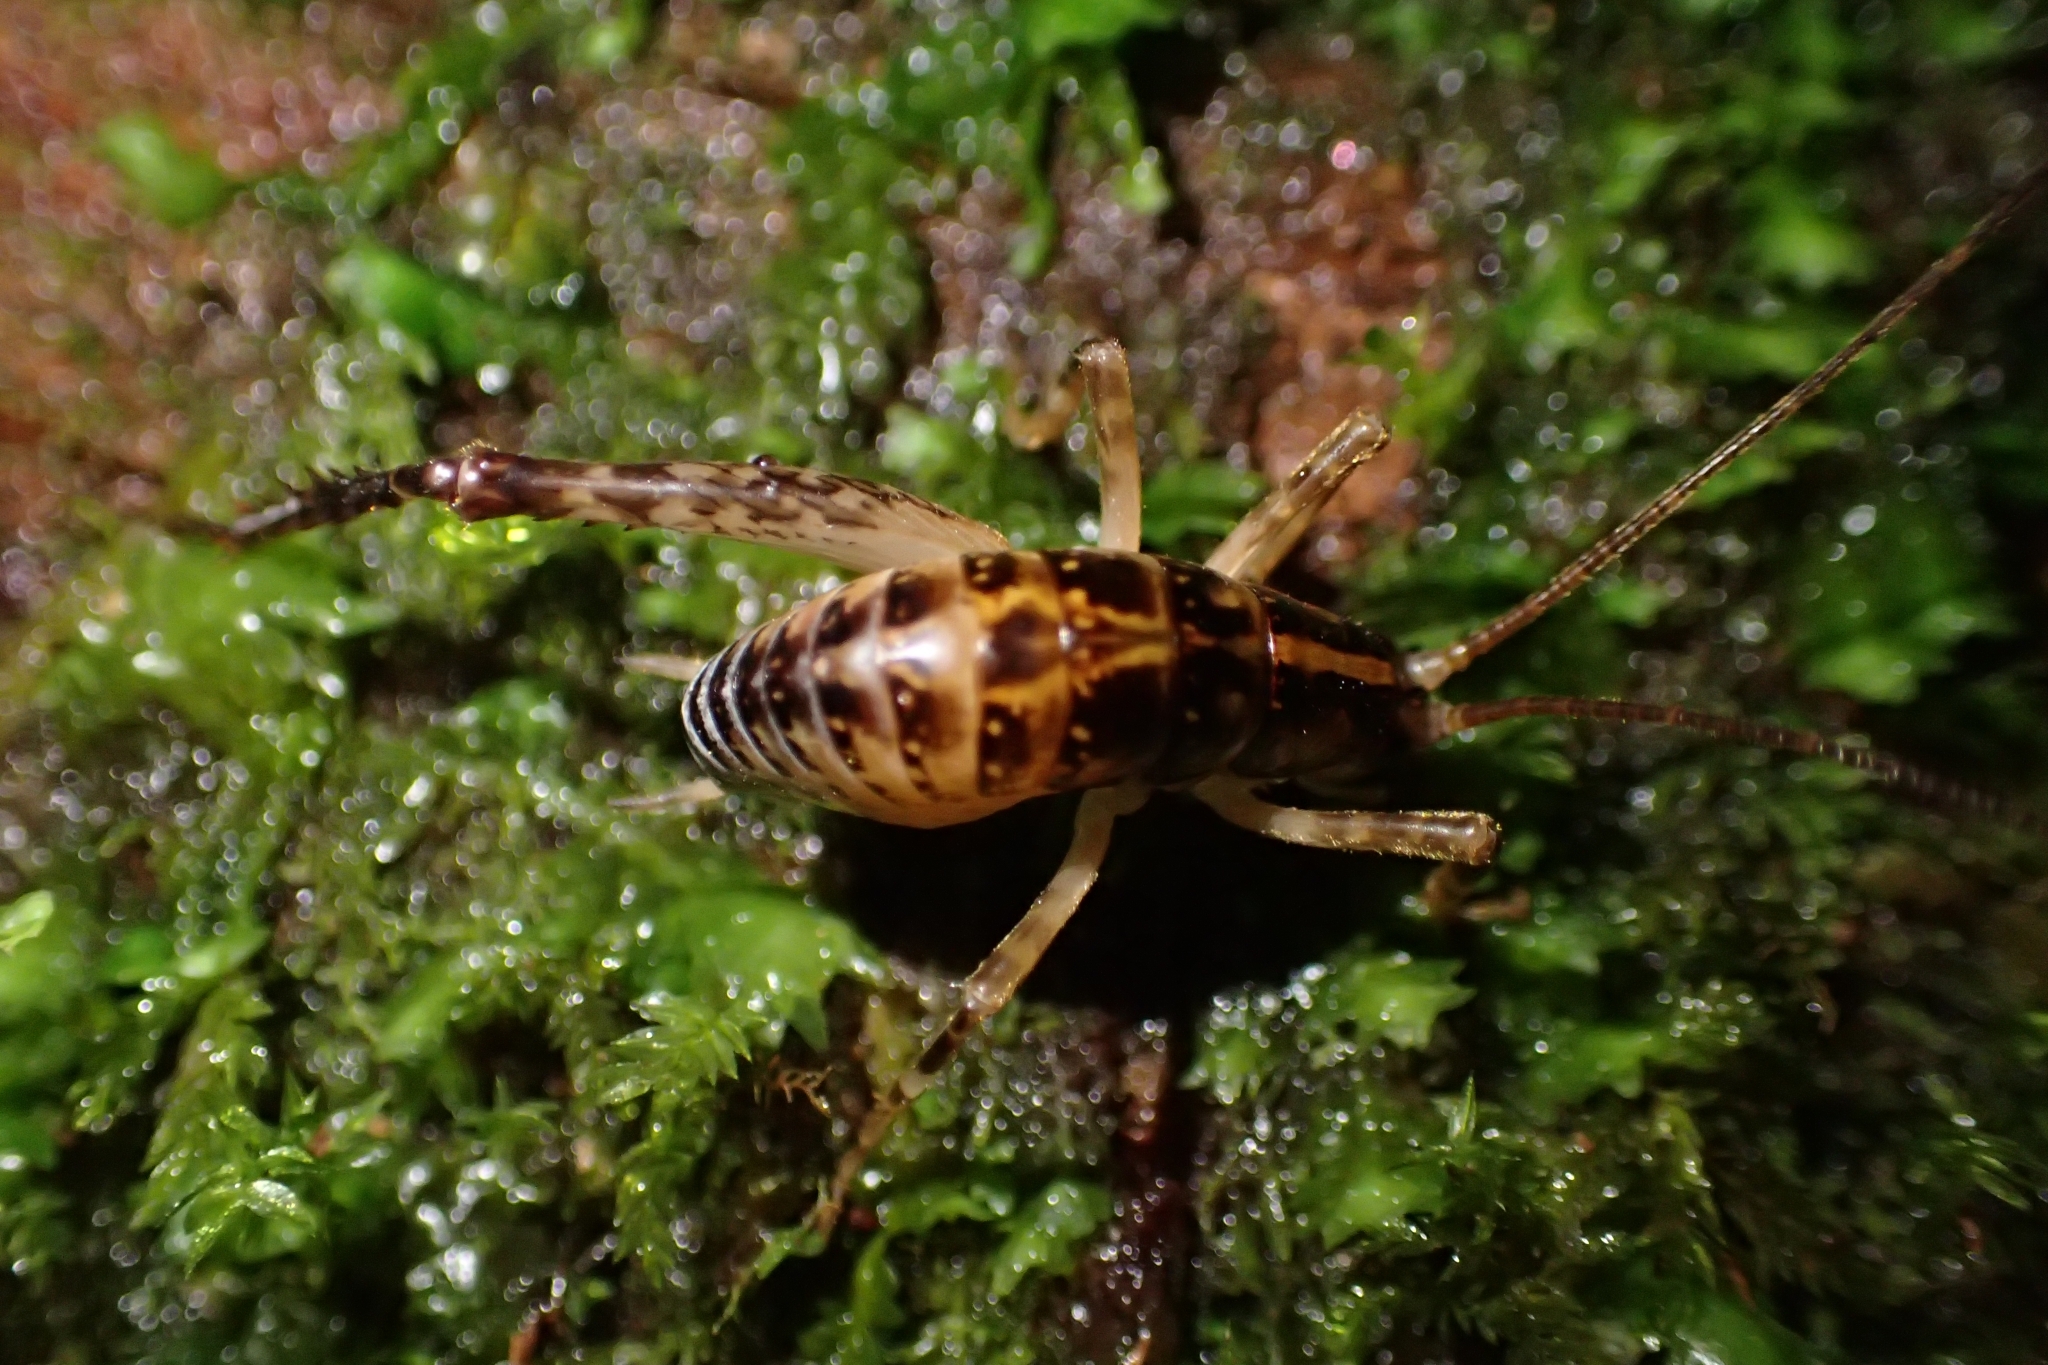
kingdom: Animalia
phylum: Arthropoda
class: Insecta
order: Orthoptera
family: Rhaphidophoridae
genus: Talitropsis
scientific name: Talitropsis sedilloti
